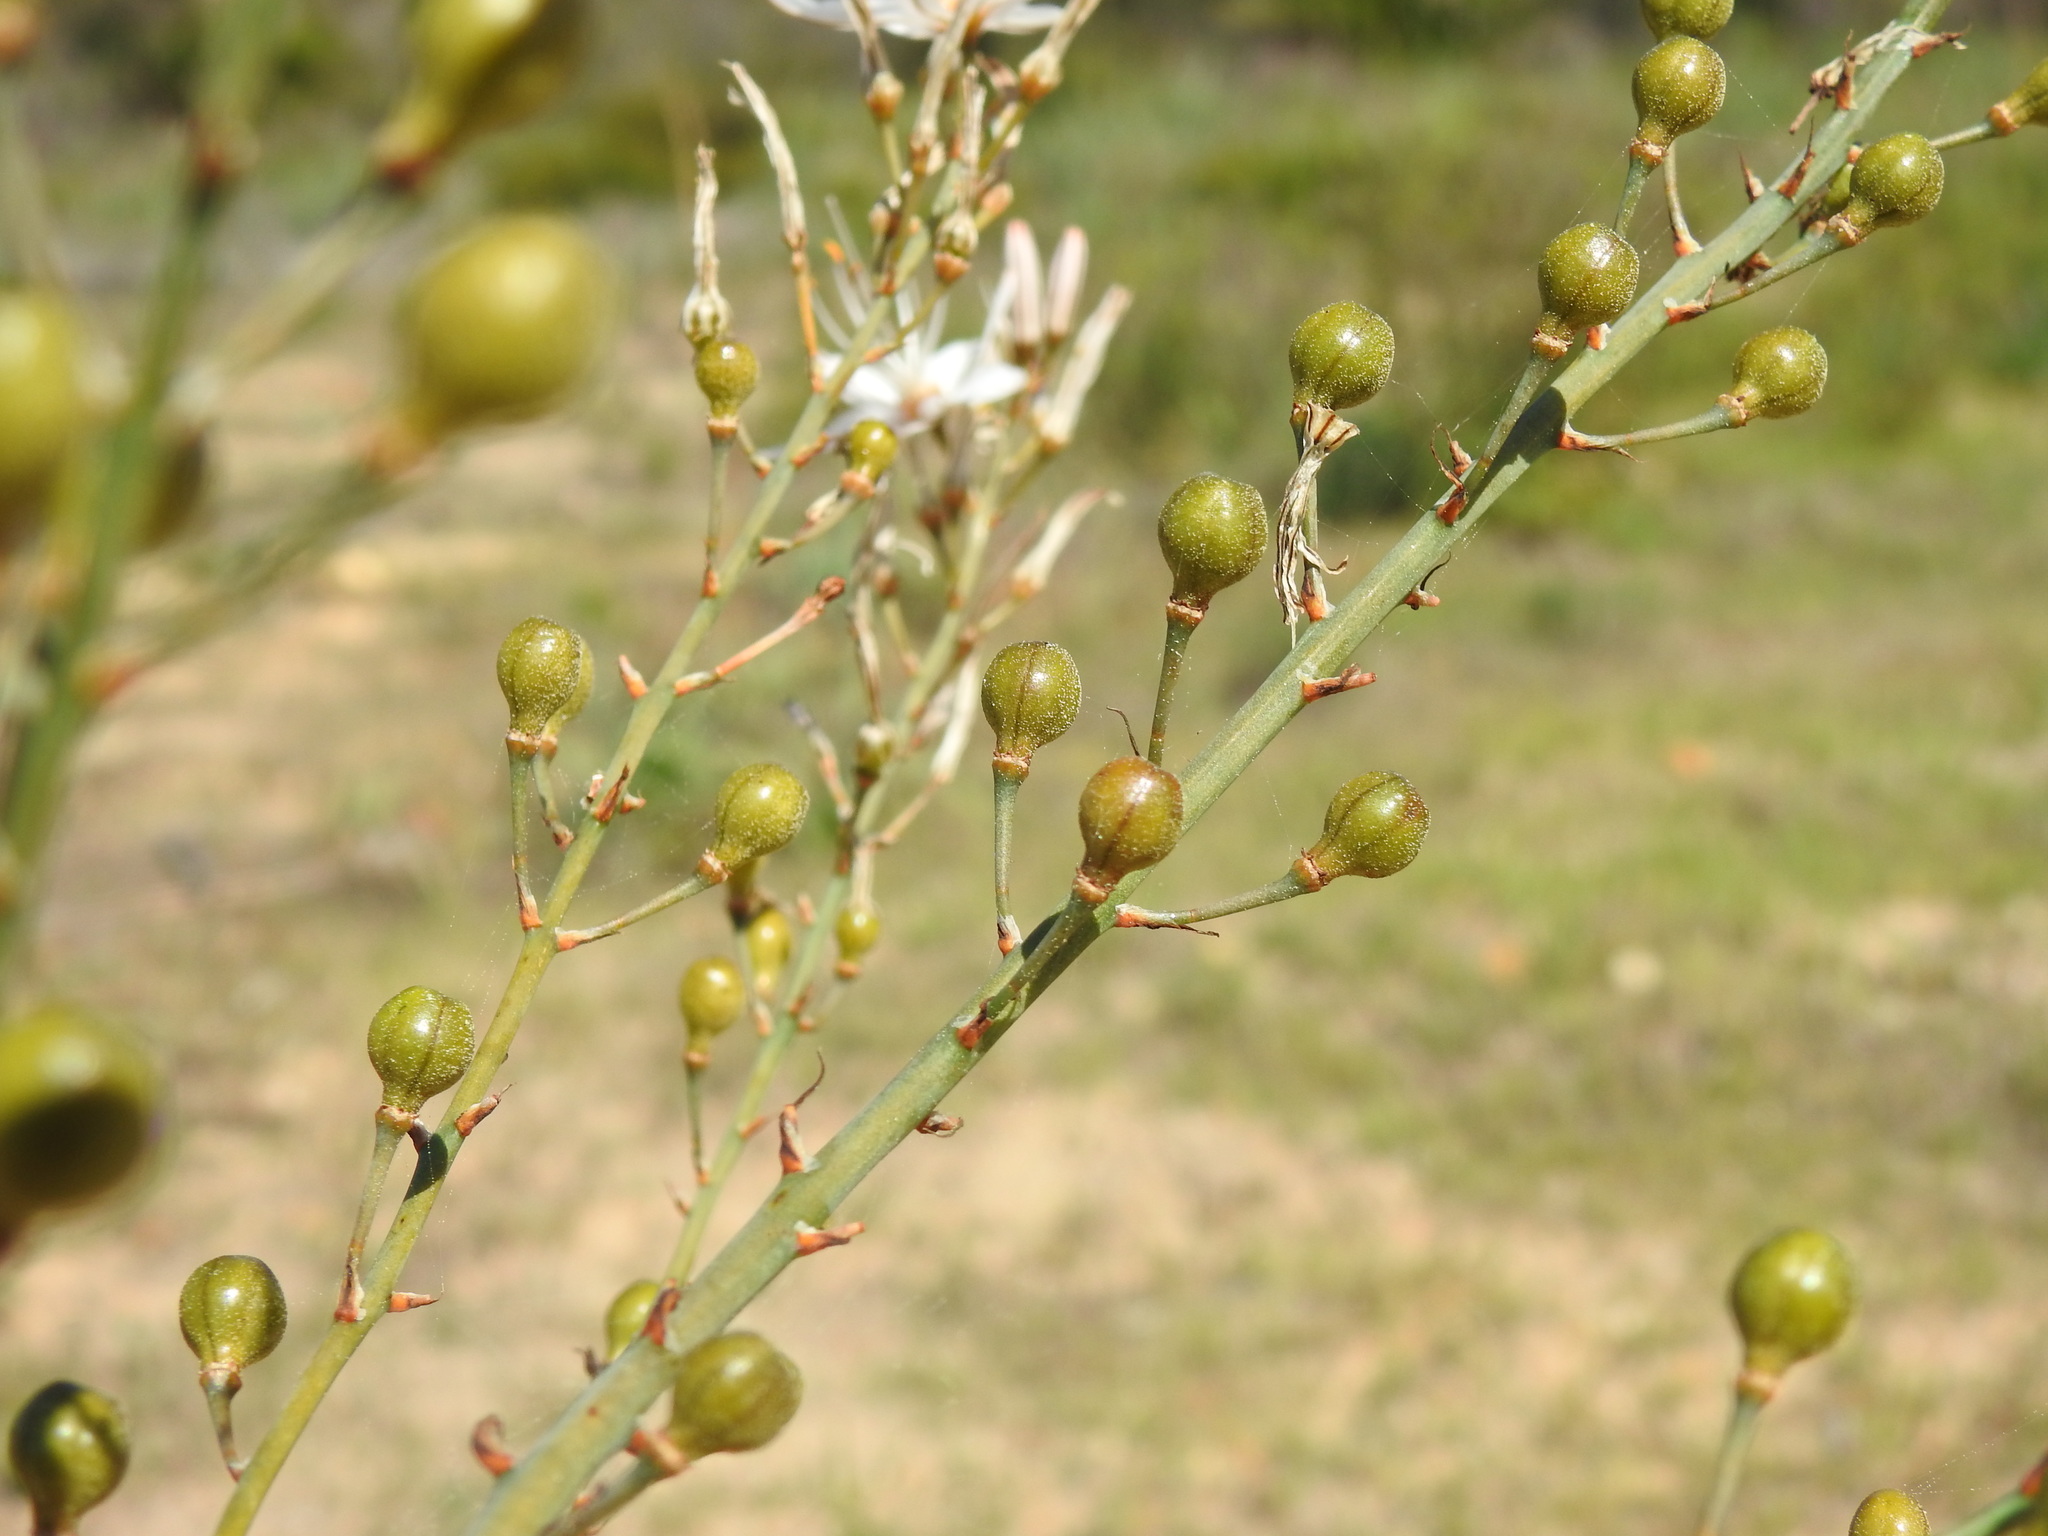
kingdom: Plantae
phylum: Tracheophyta
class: Liliopsida
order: Asparagales
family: Asphodelaceae
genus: Asphodelus
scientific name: Asphodelus serotinus
